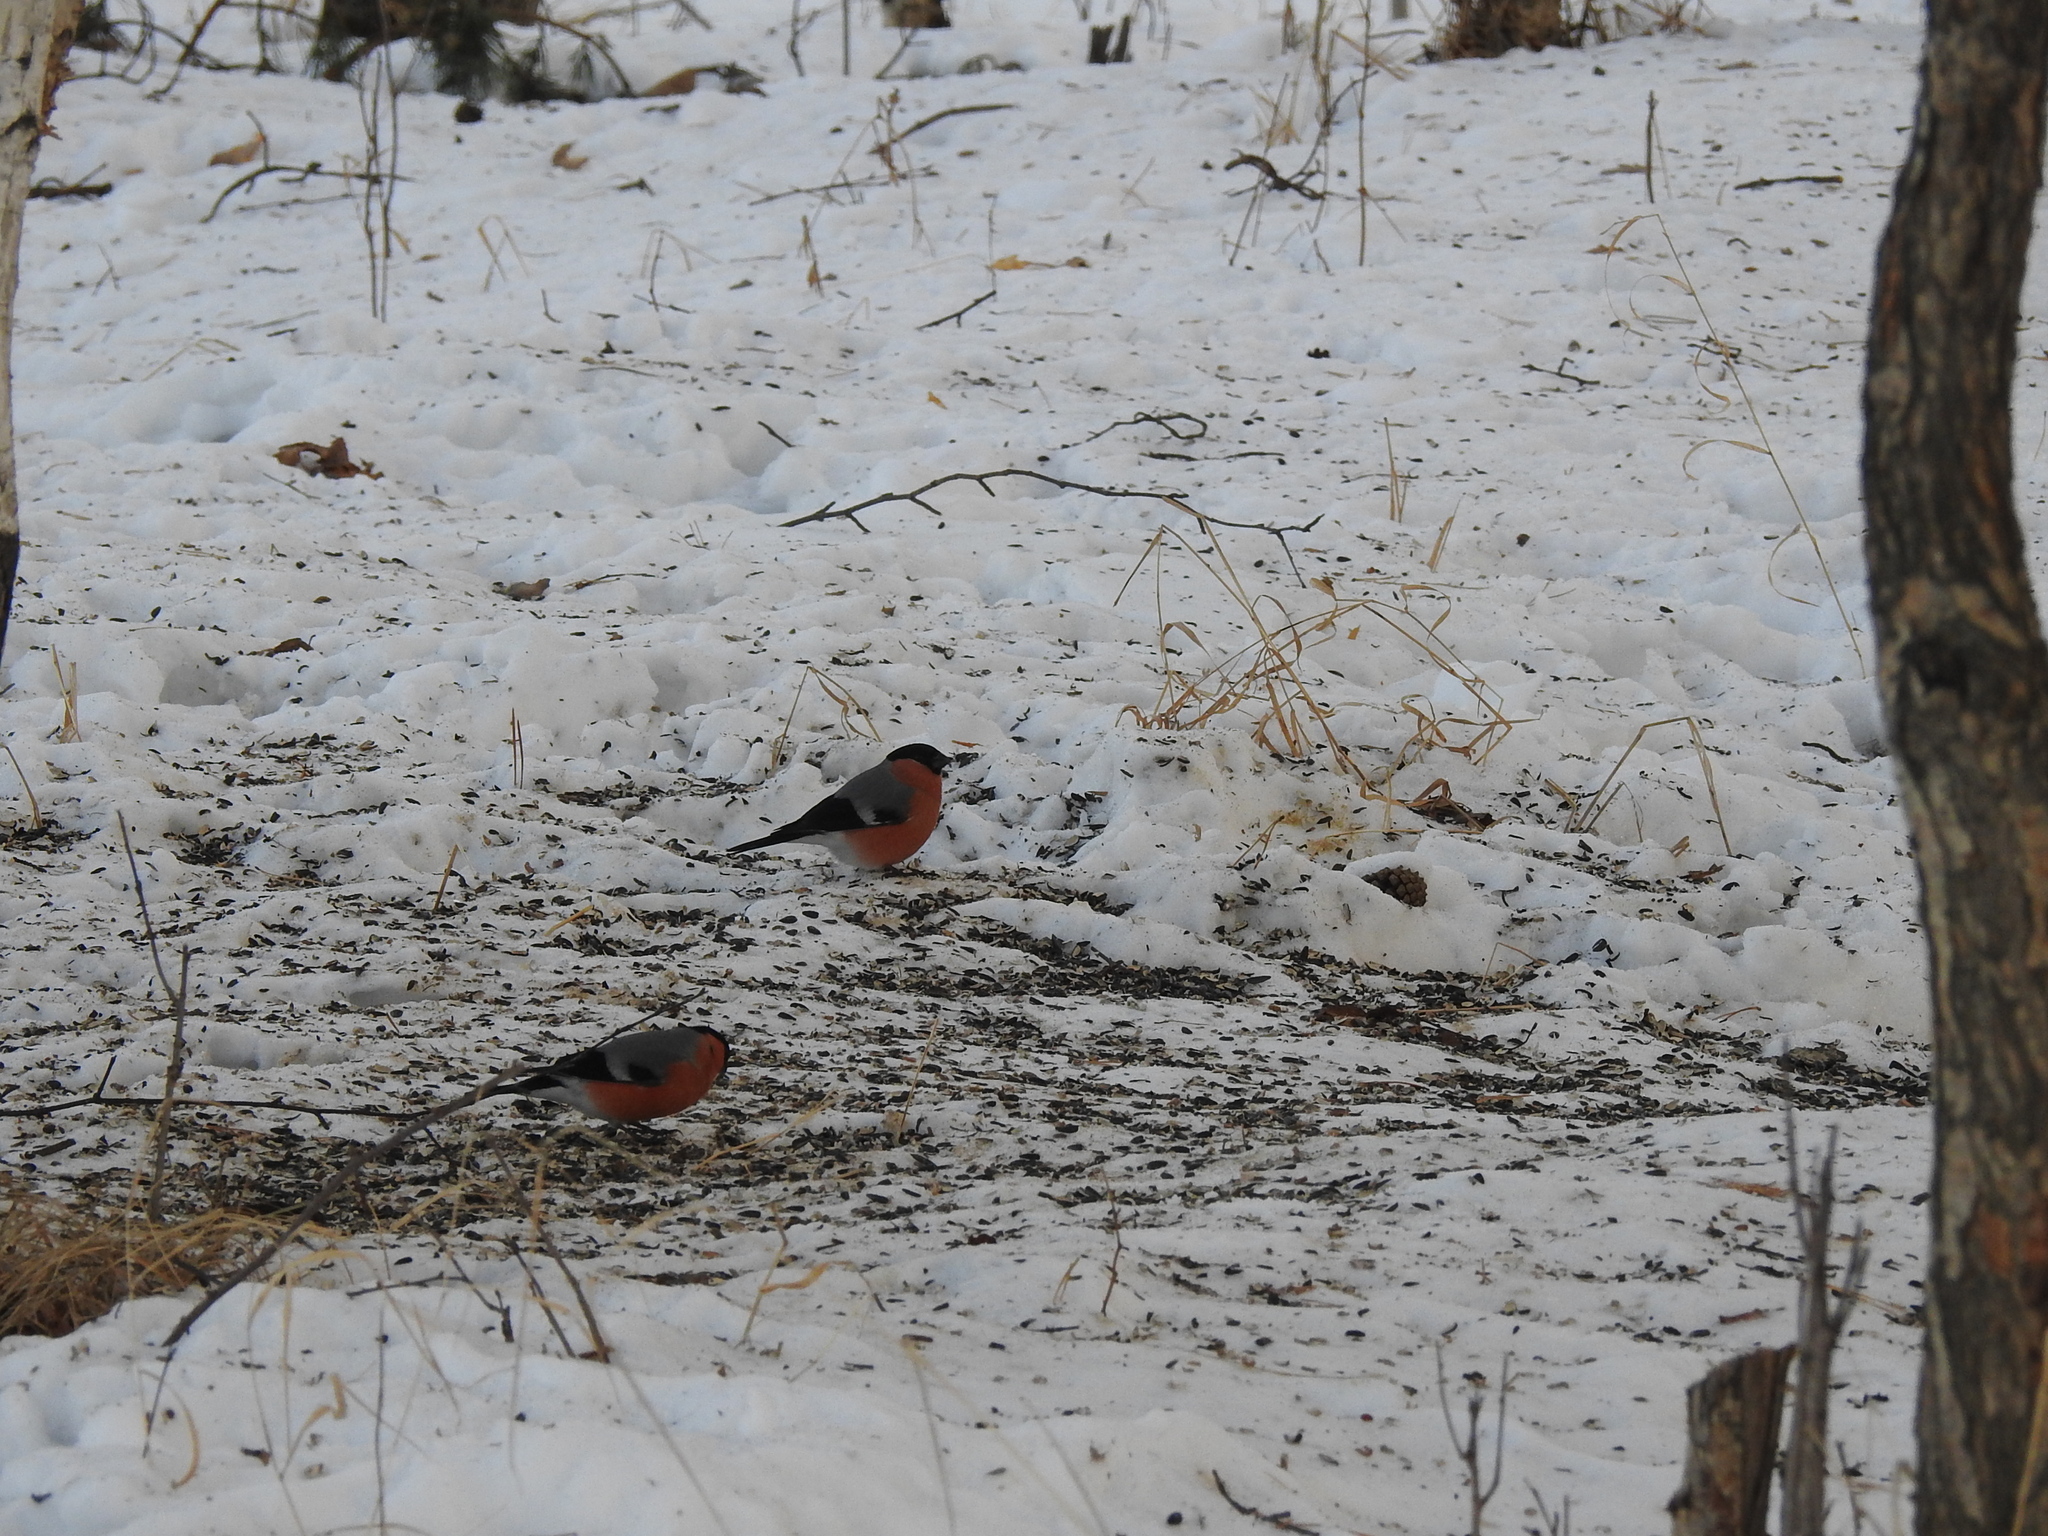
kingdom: Animalia
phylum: Chordata
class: Aves
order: Passeriformes
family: Fringillidae
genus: Pyrrhula
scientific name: Pyrrhula pyrrhula
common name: Eurasian bullfinch
